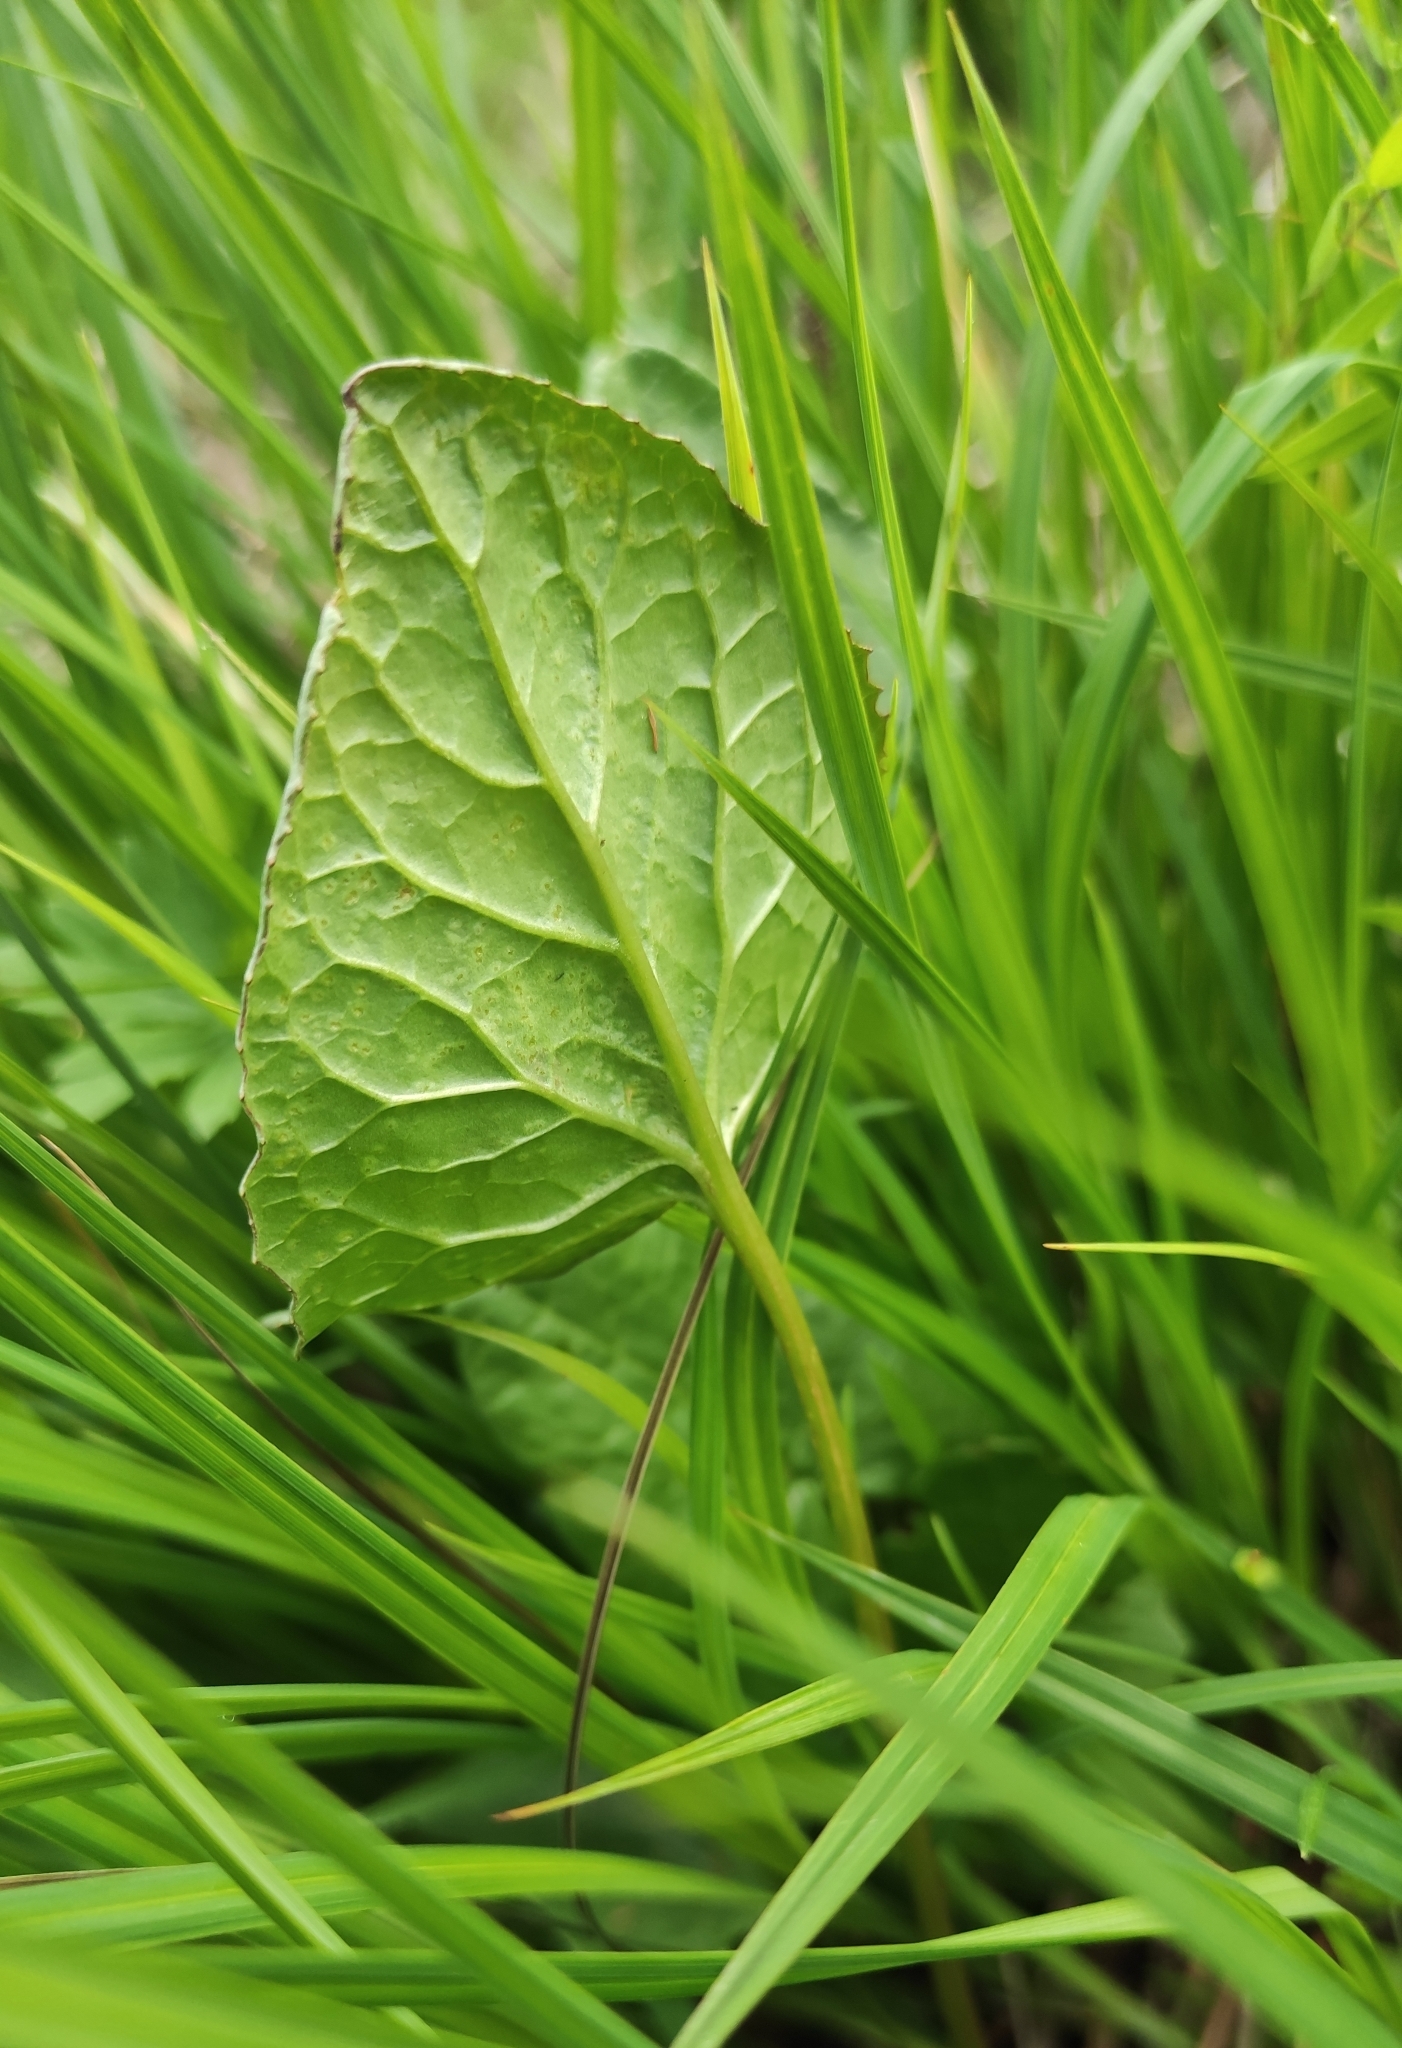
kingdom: Plantae
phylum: Tracheophyta
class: Magnoliopsida
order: Asterales
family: Asteraceae
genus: Ligularia
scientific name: Ligularia sibirica
